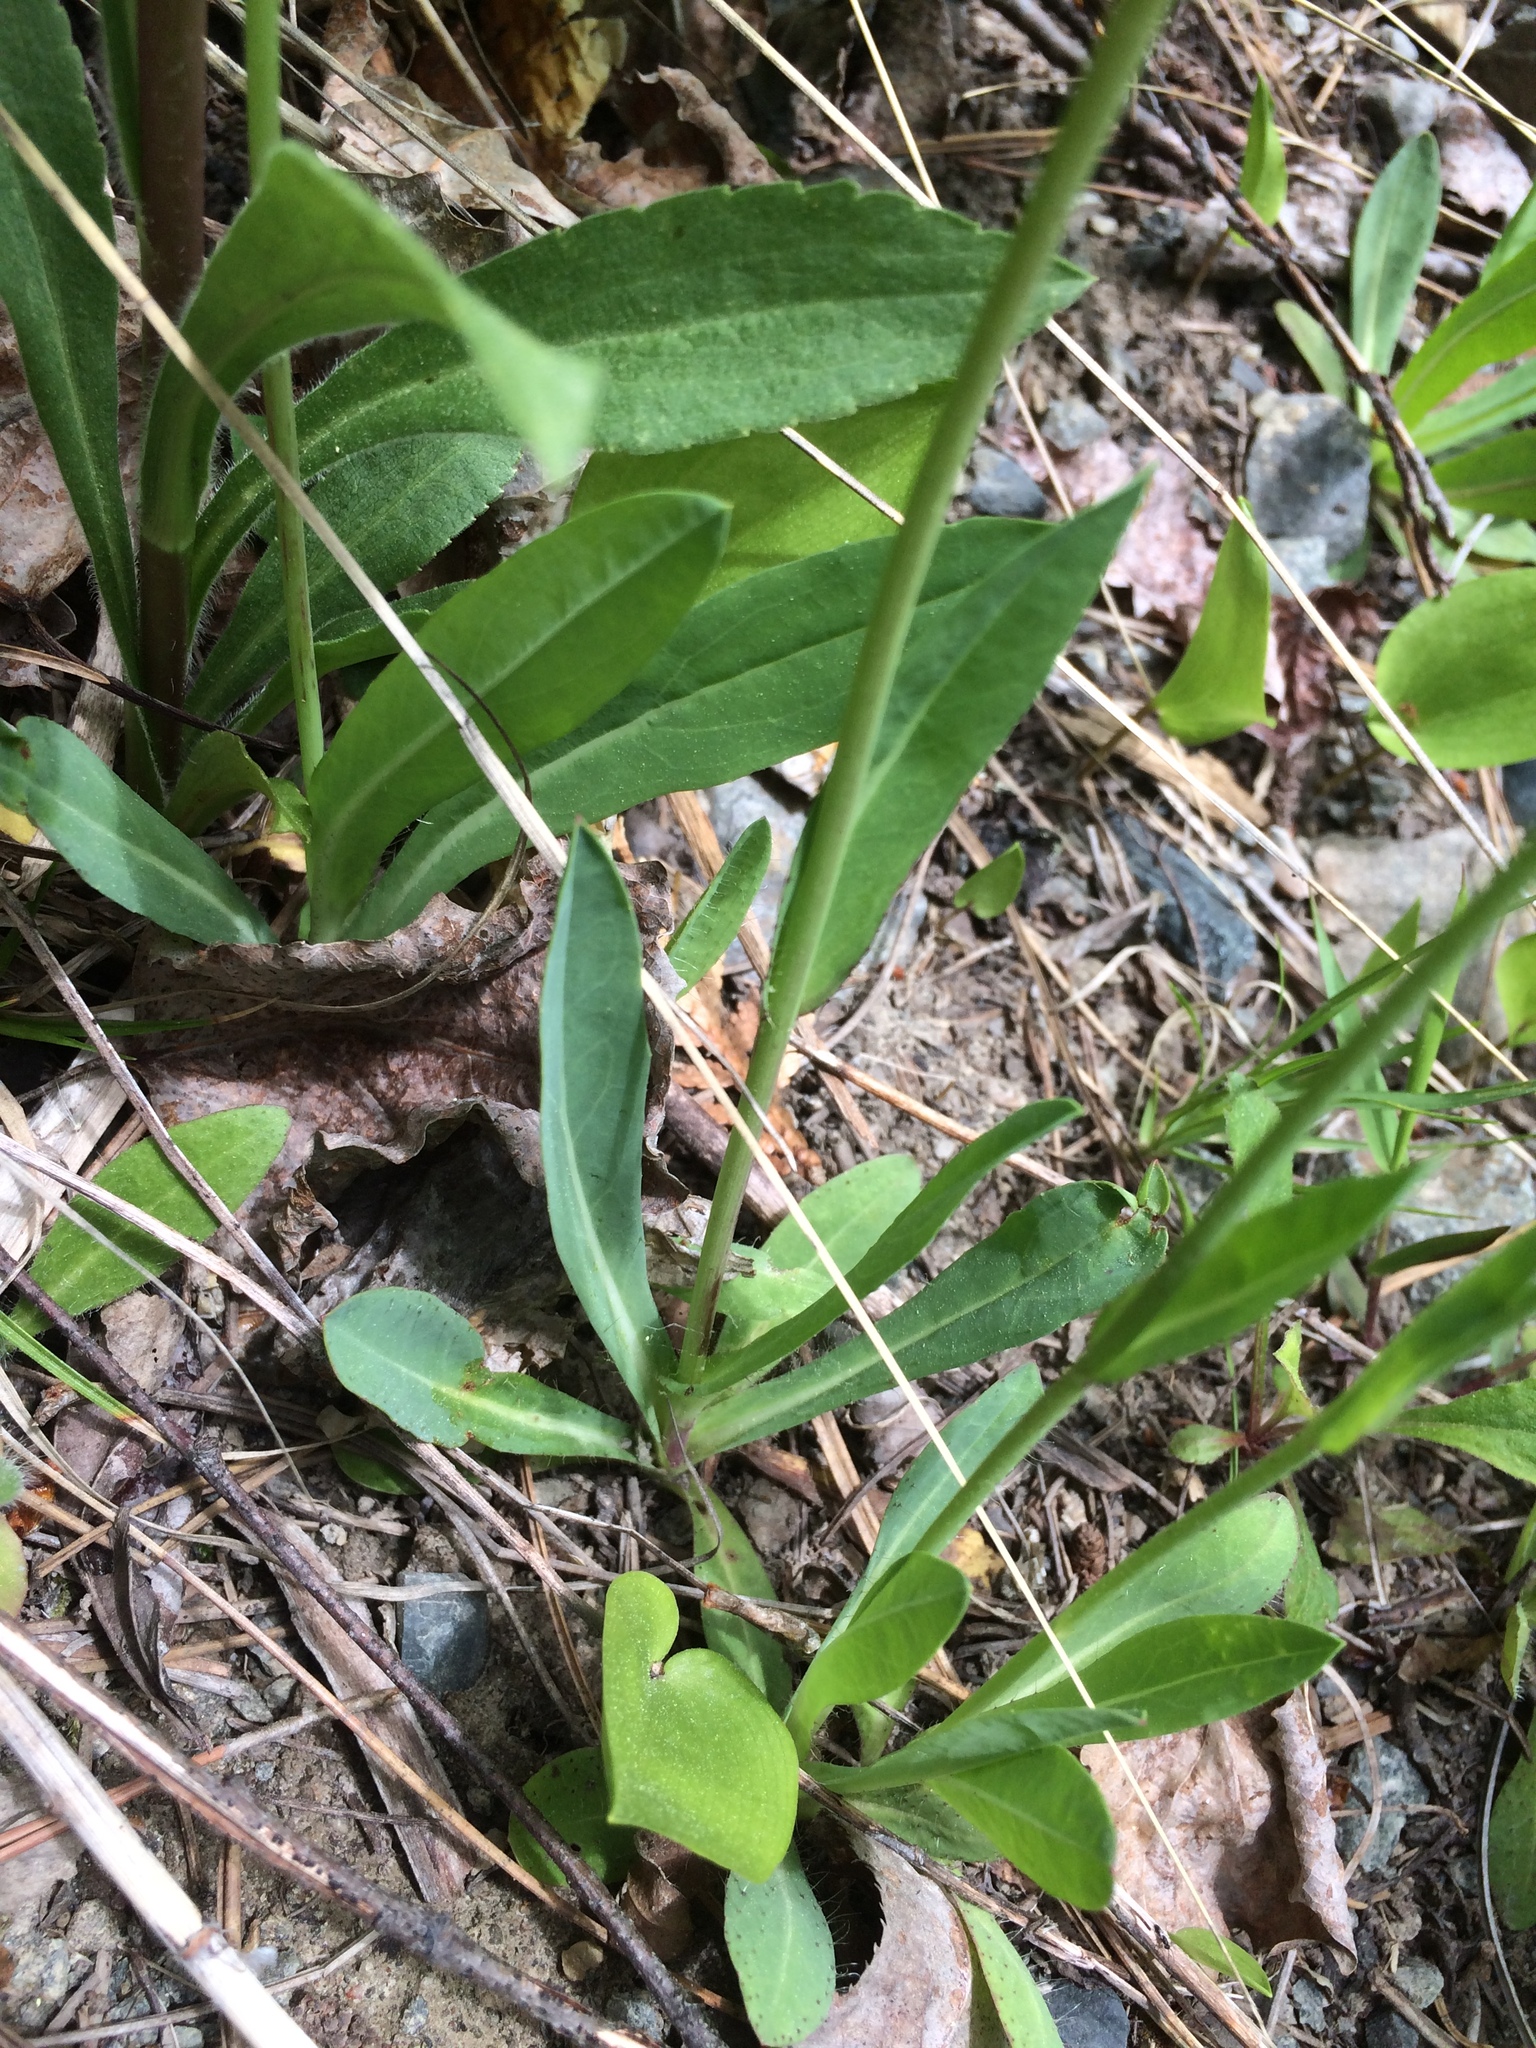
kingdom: Plantae
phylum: Tracheophyta
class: Magnoliopsida
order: Asterales
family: Asteraceae
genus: Pilosella
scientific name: Pilosella piloselloides
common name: Glaucous king-devil
